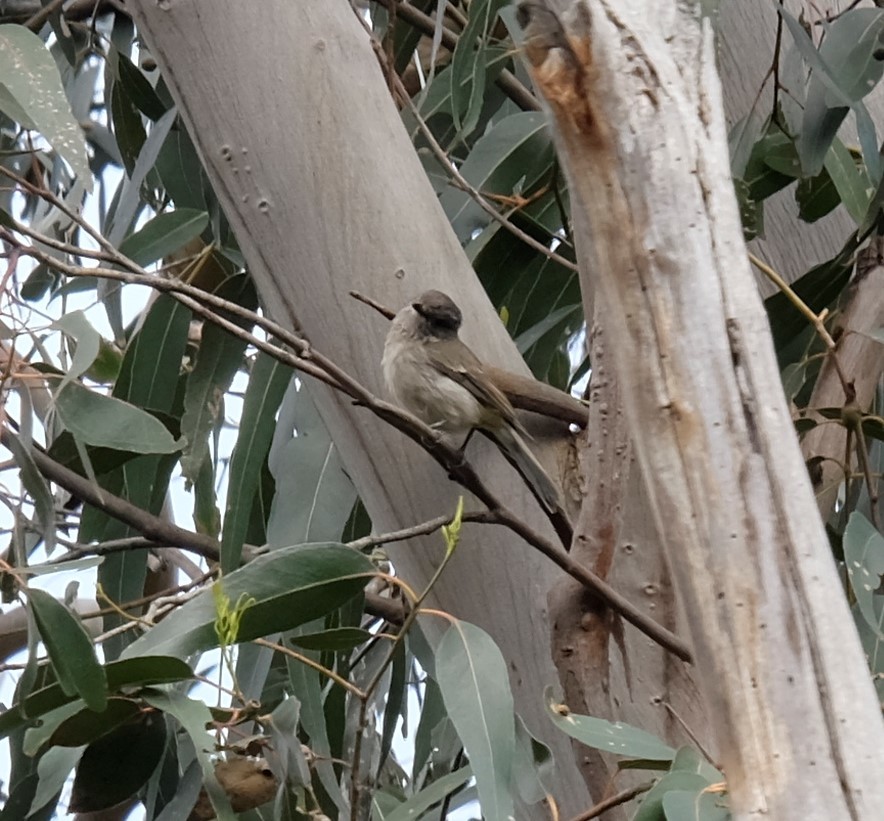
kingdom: Animalia
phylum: Chordata
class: Aves
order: Passeriformes
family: Pachycephalidae
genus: Colluricincla
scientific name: Colluricincla harmonica
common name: Grey shrikethrush
